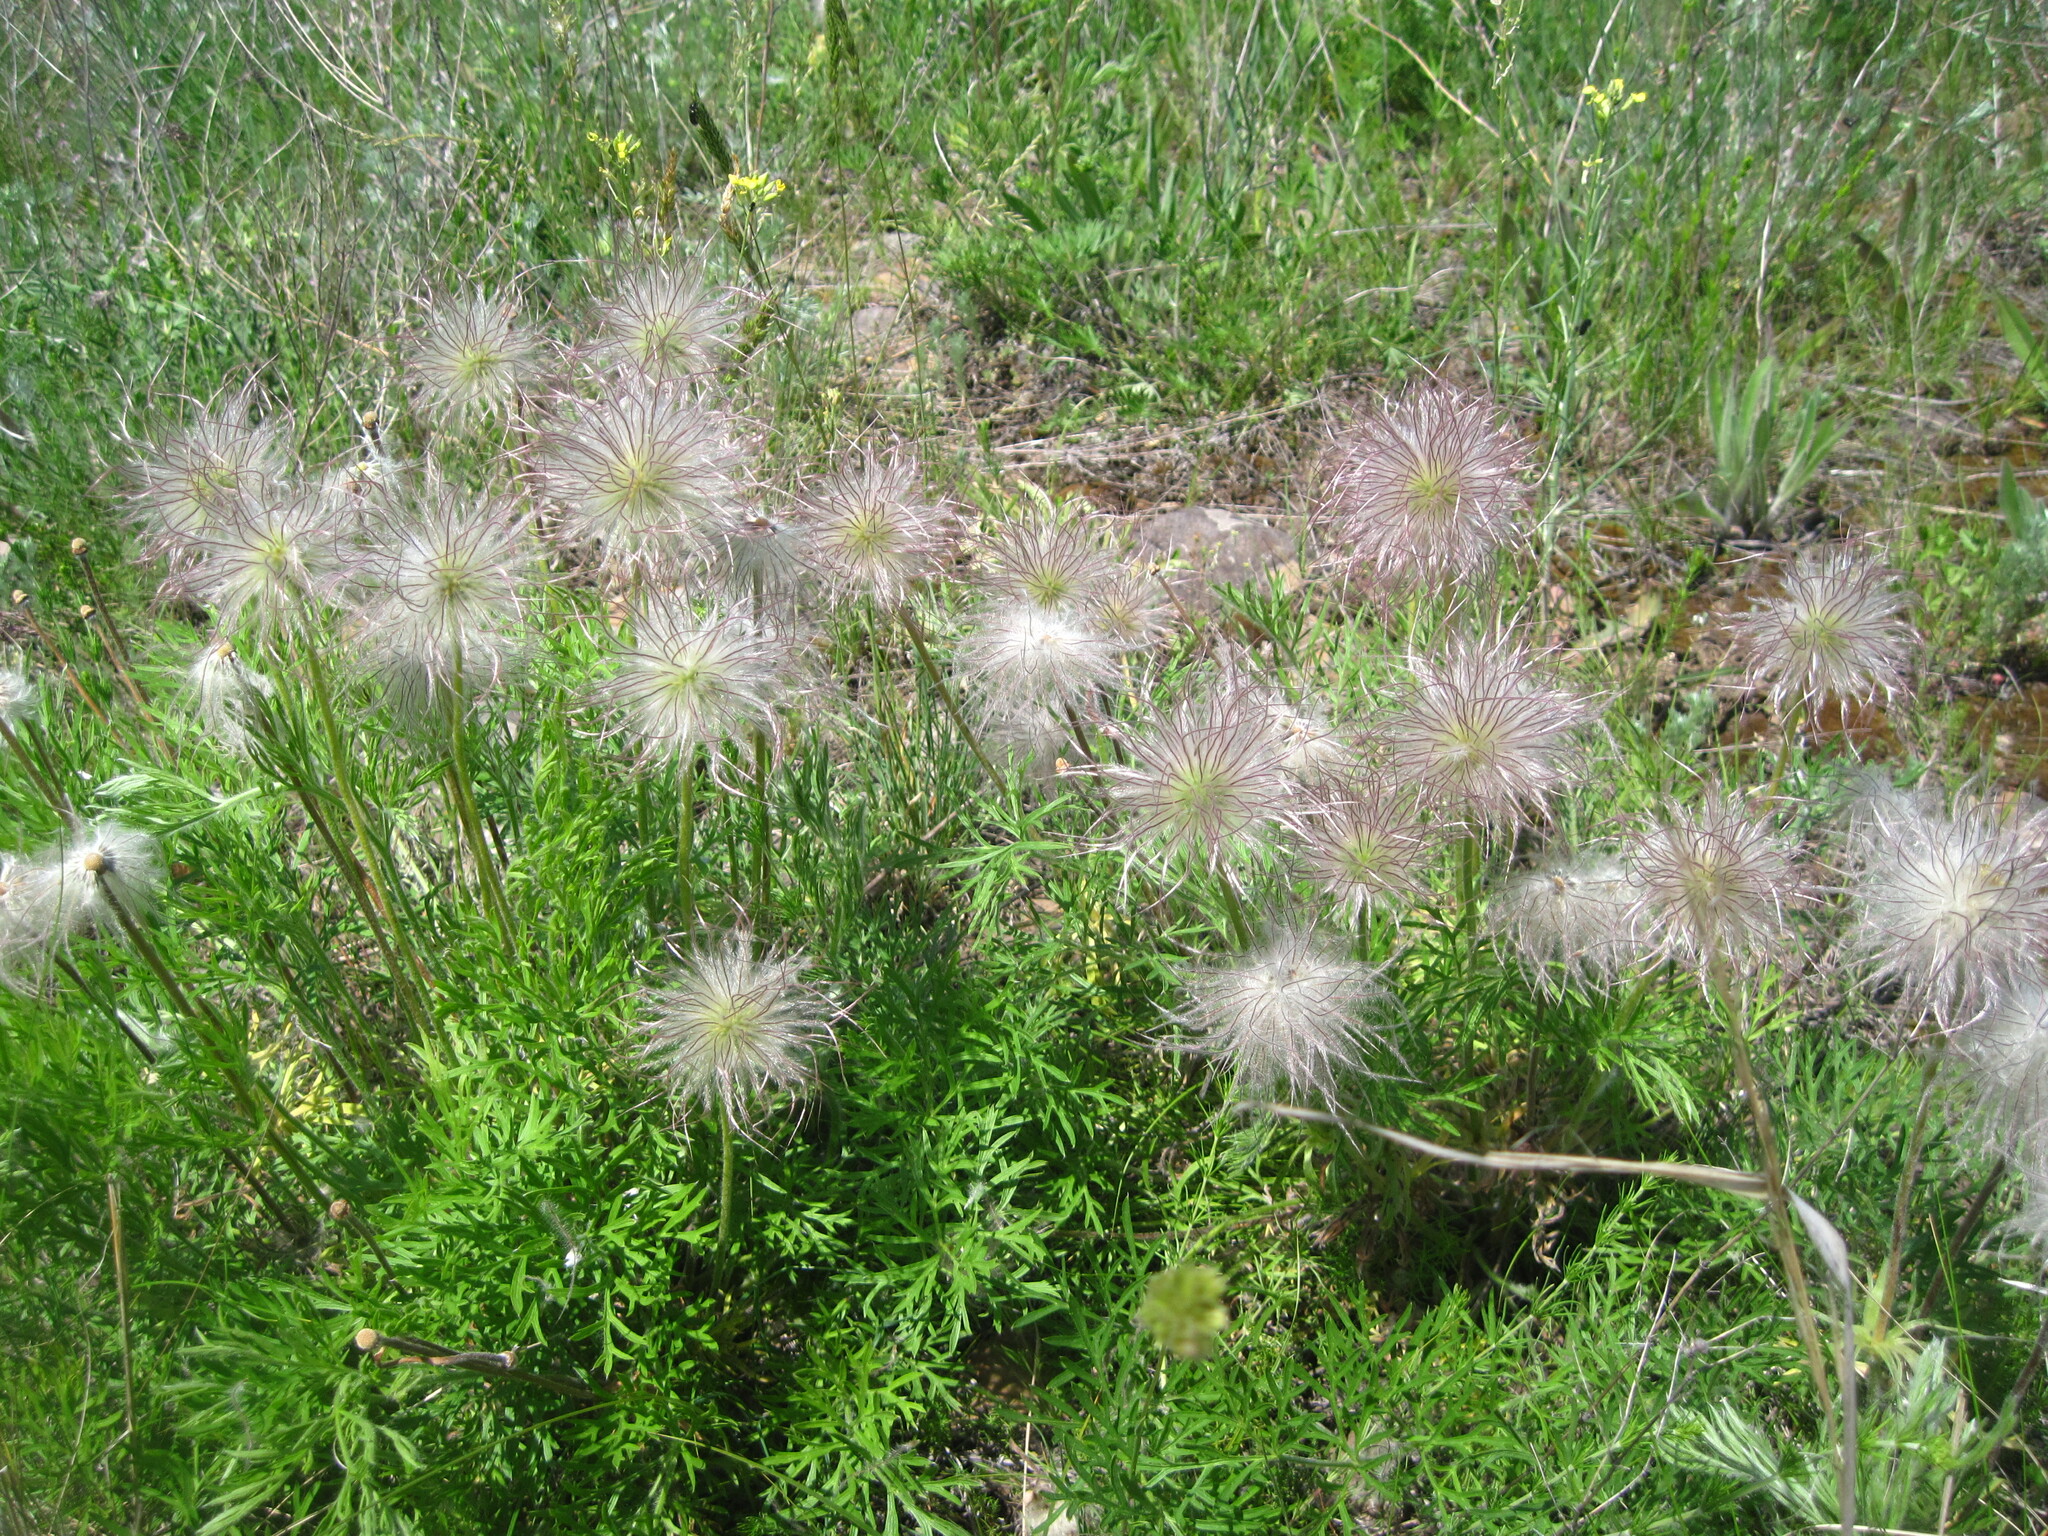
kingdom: Plantae
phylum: Tracheophyta
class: Magnoliopsida
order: Ranunculales
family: Ranunculaceae
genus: Pulsatilla
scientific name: Pulsatilla pratensis
